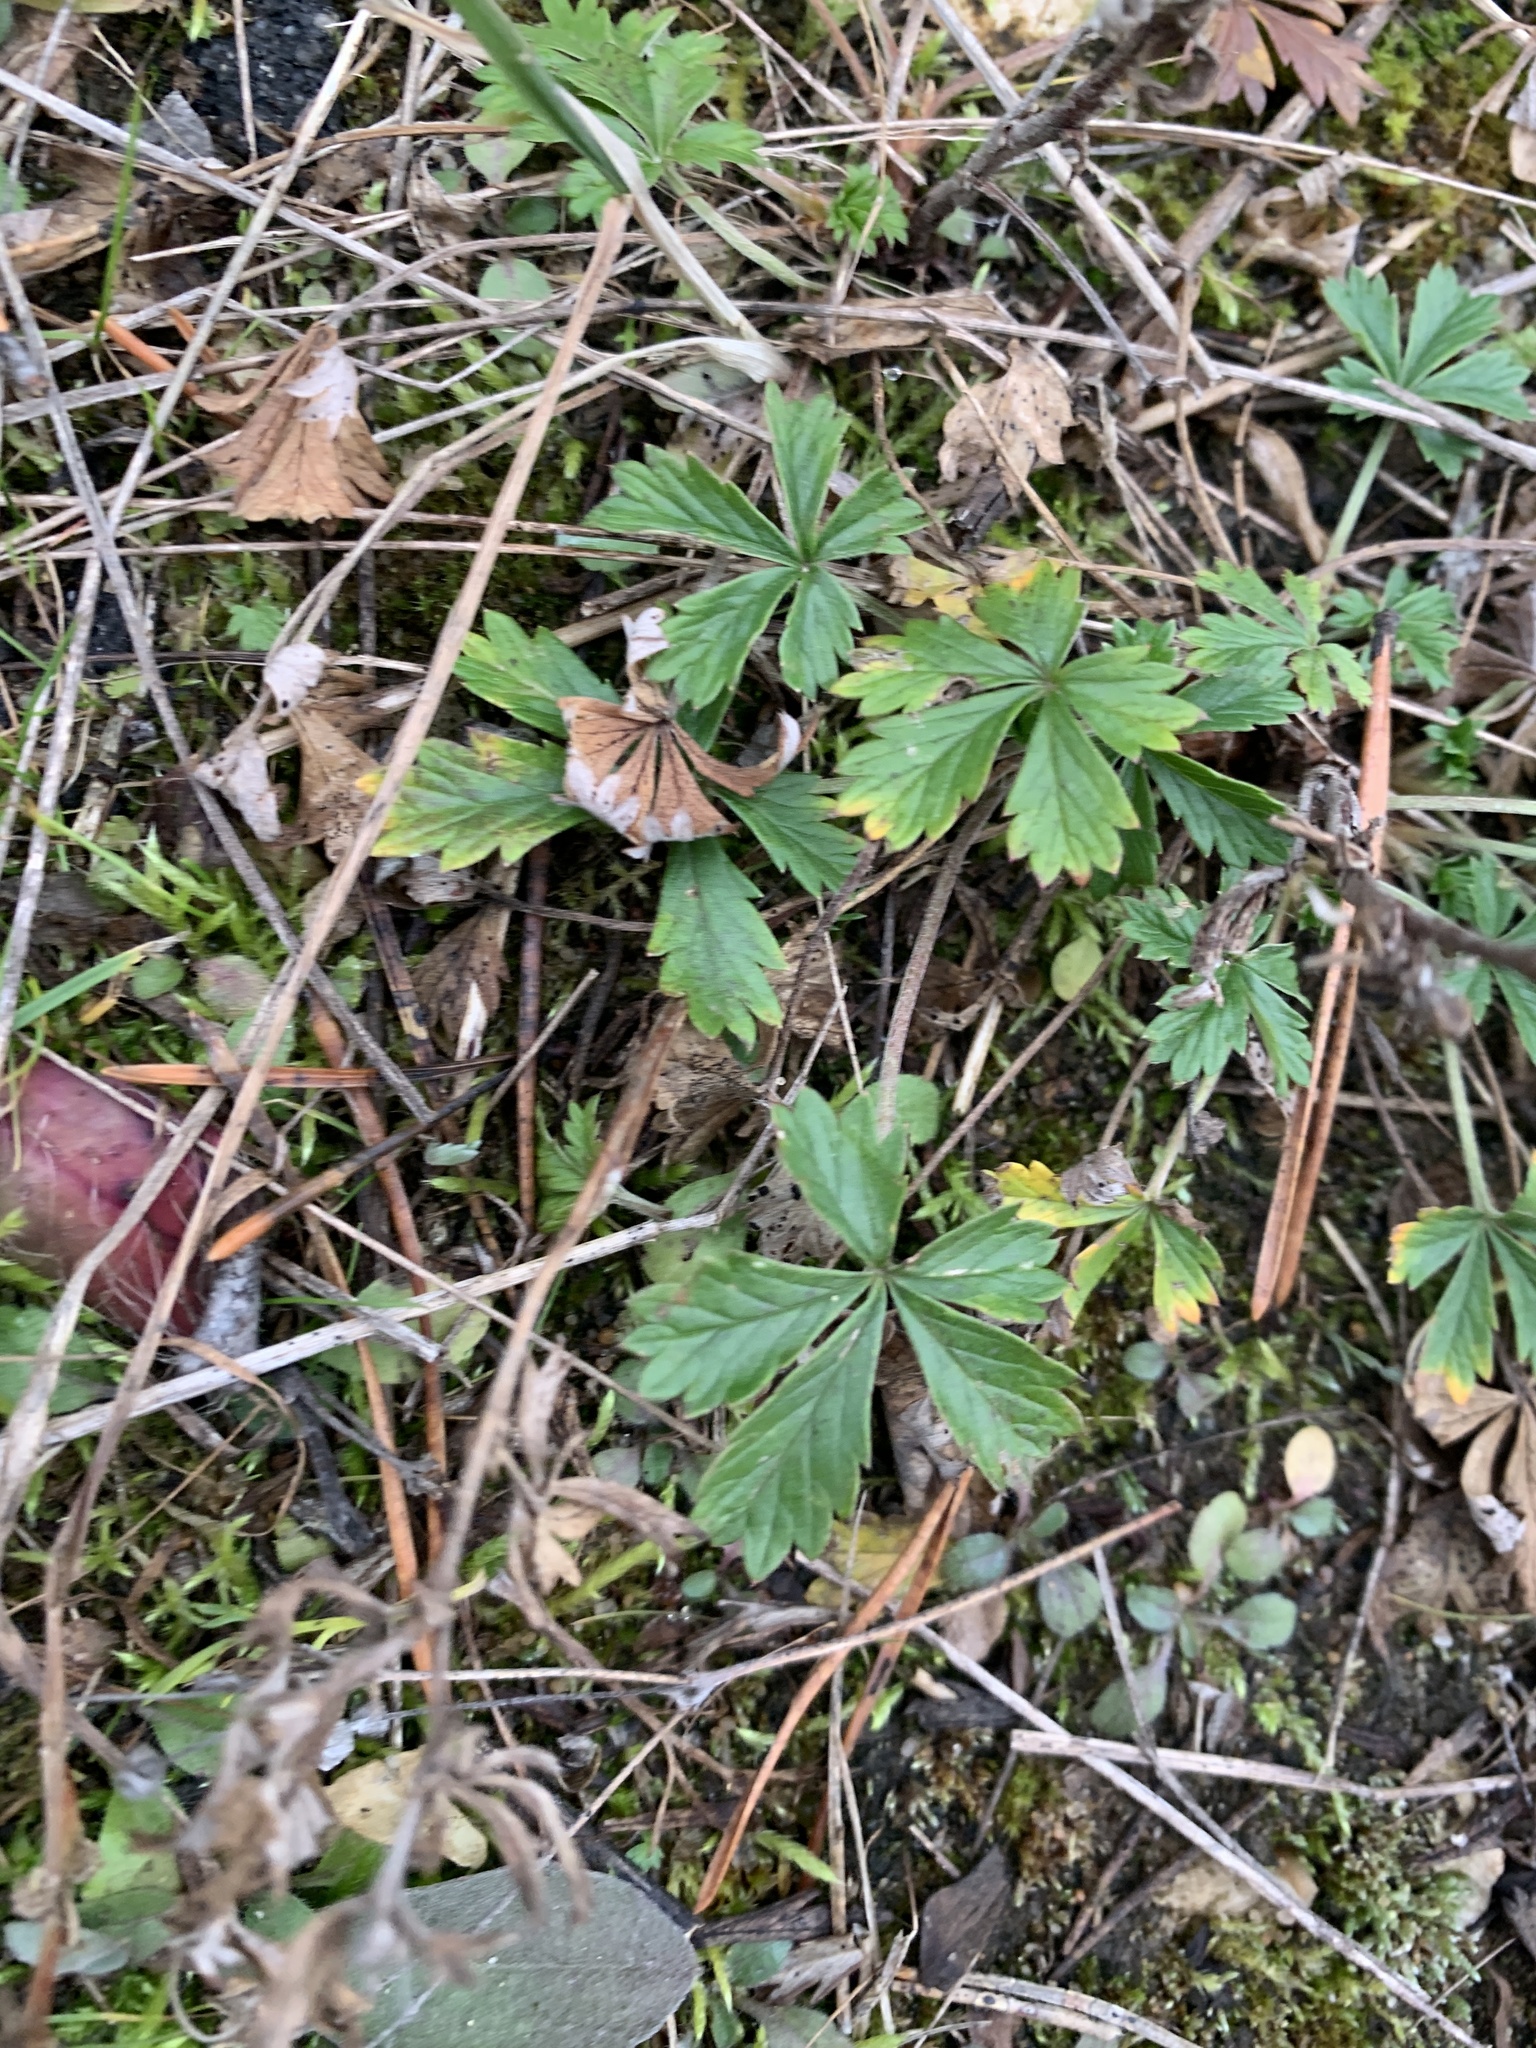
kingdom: Plantae
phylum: Tracheophyta
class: Magnoliopsida
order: Rosales
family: Rosaceae
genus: Potentilla
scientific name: Potentilla argentea
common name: Hoary cinquefoil
